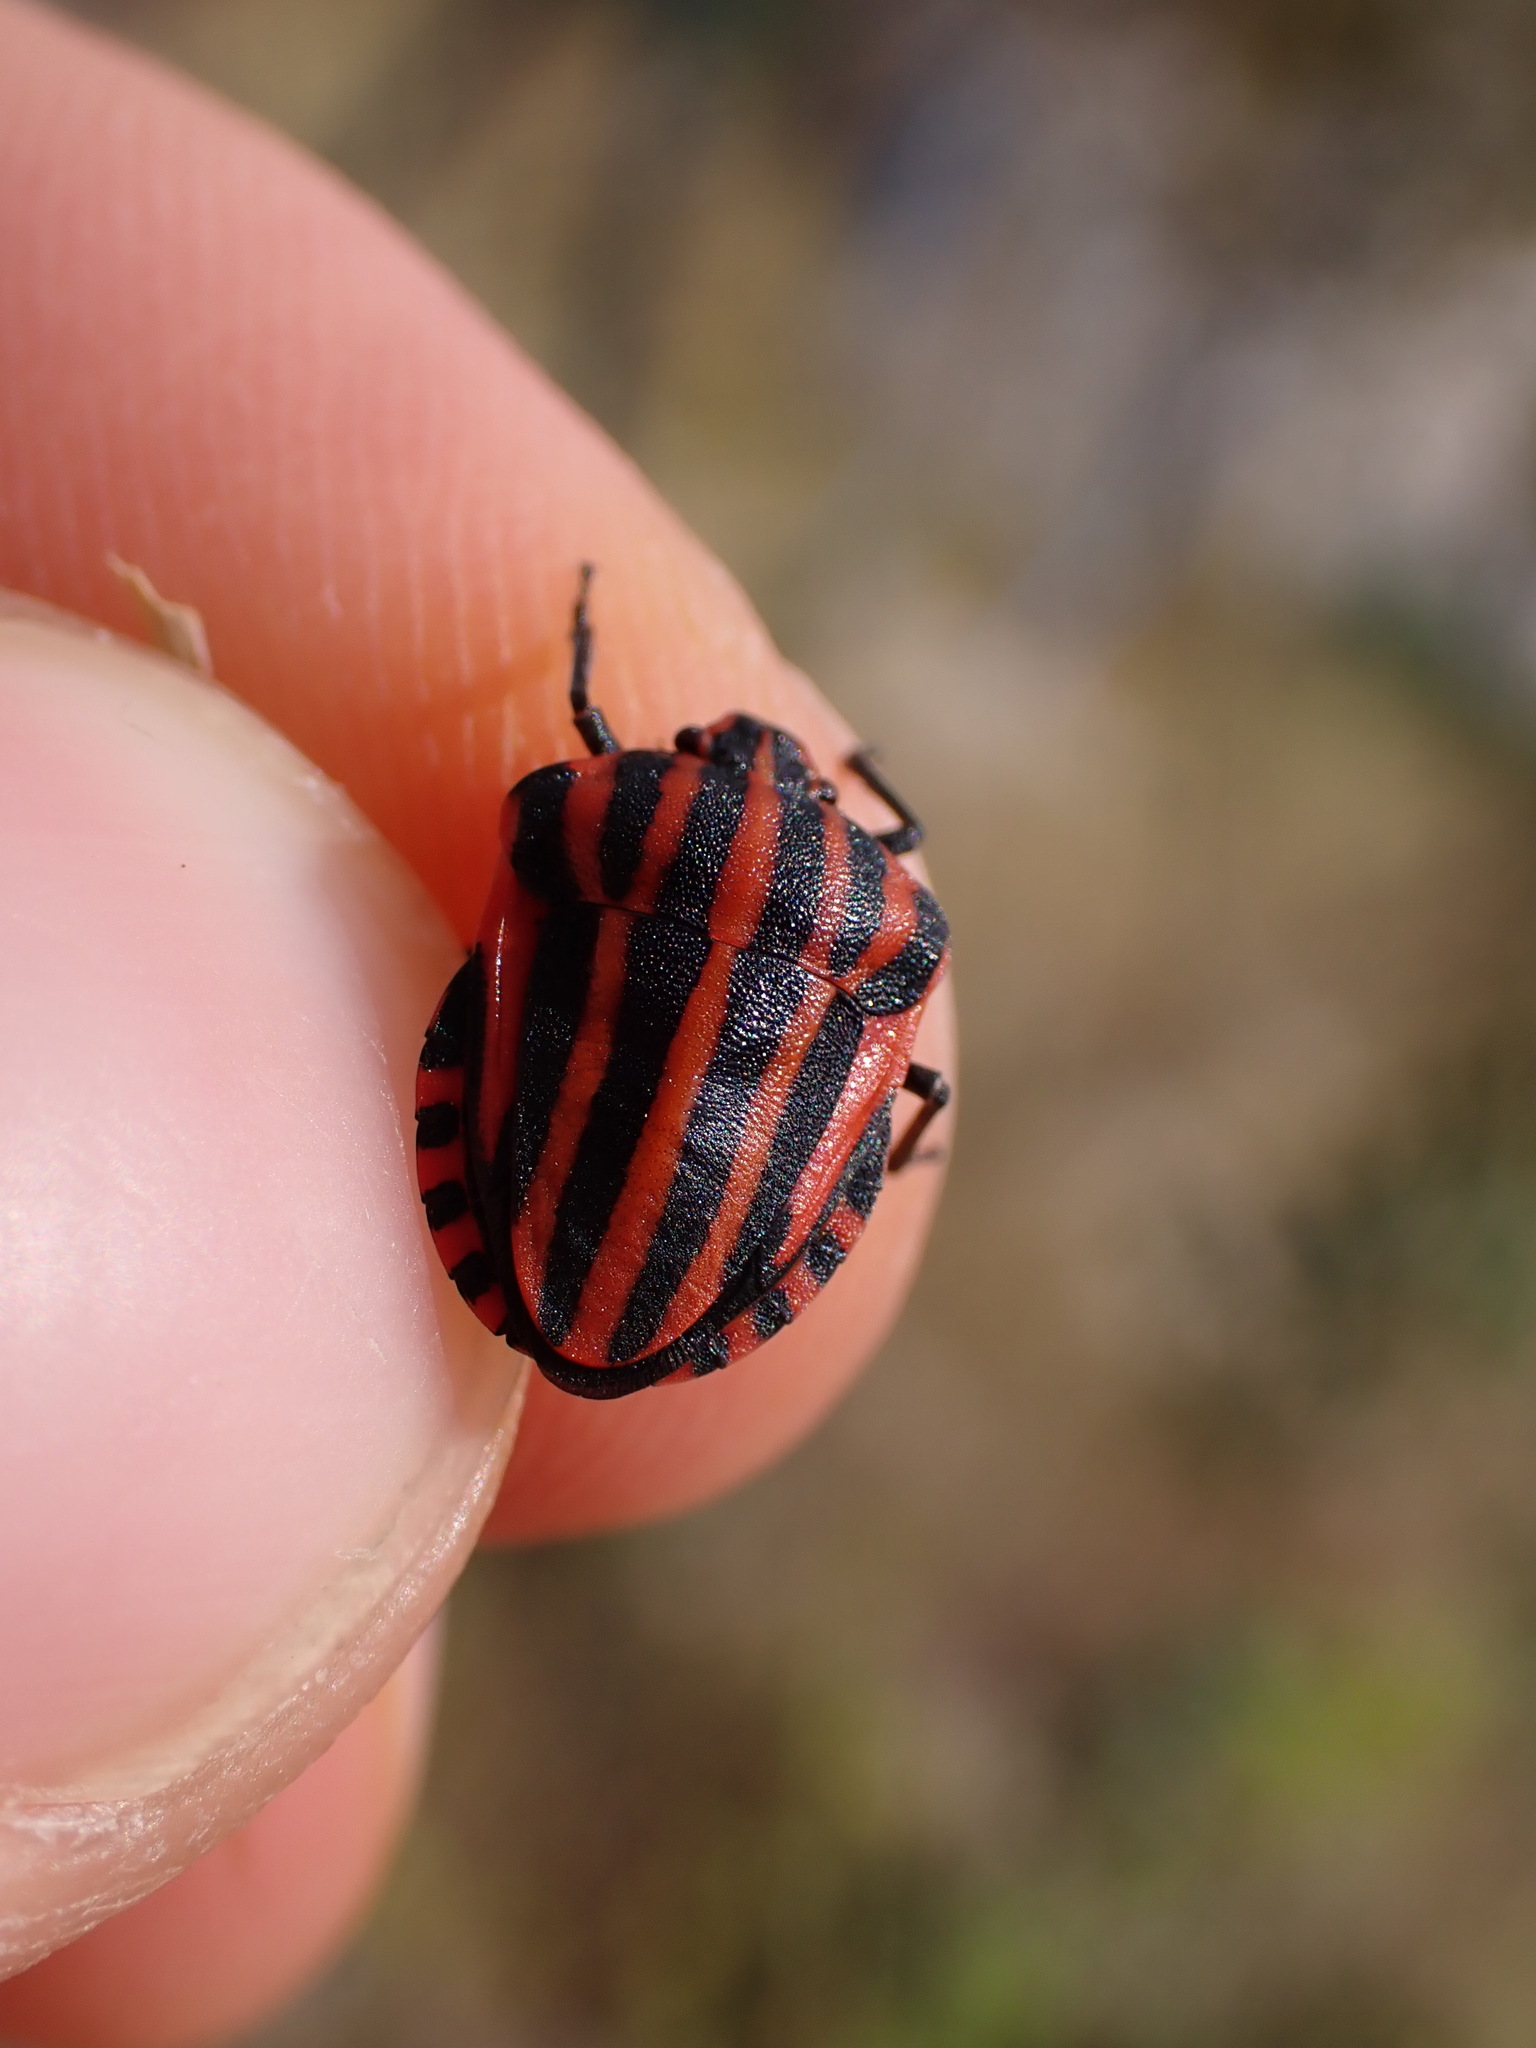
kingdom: Animalia
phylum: Arthropoda
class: Insecta
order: Hemiptera
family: Pentatomidae
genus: Graphosoma
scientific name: Graphosoma italicum
